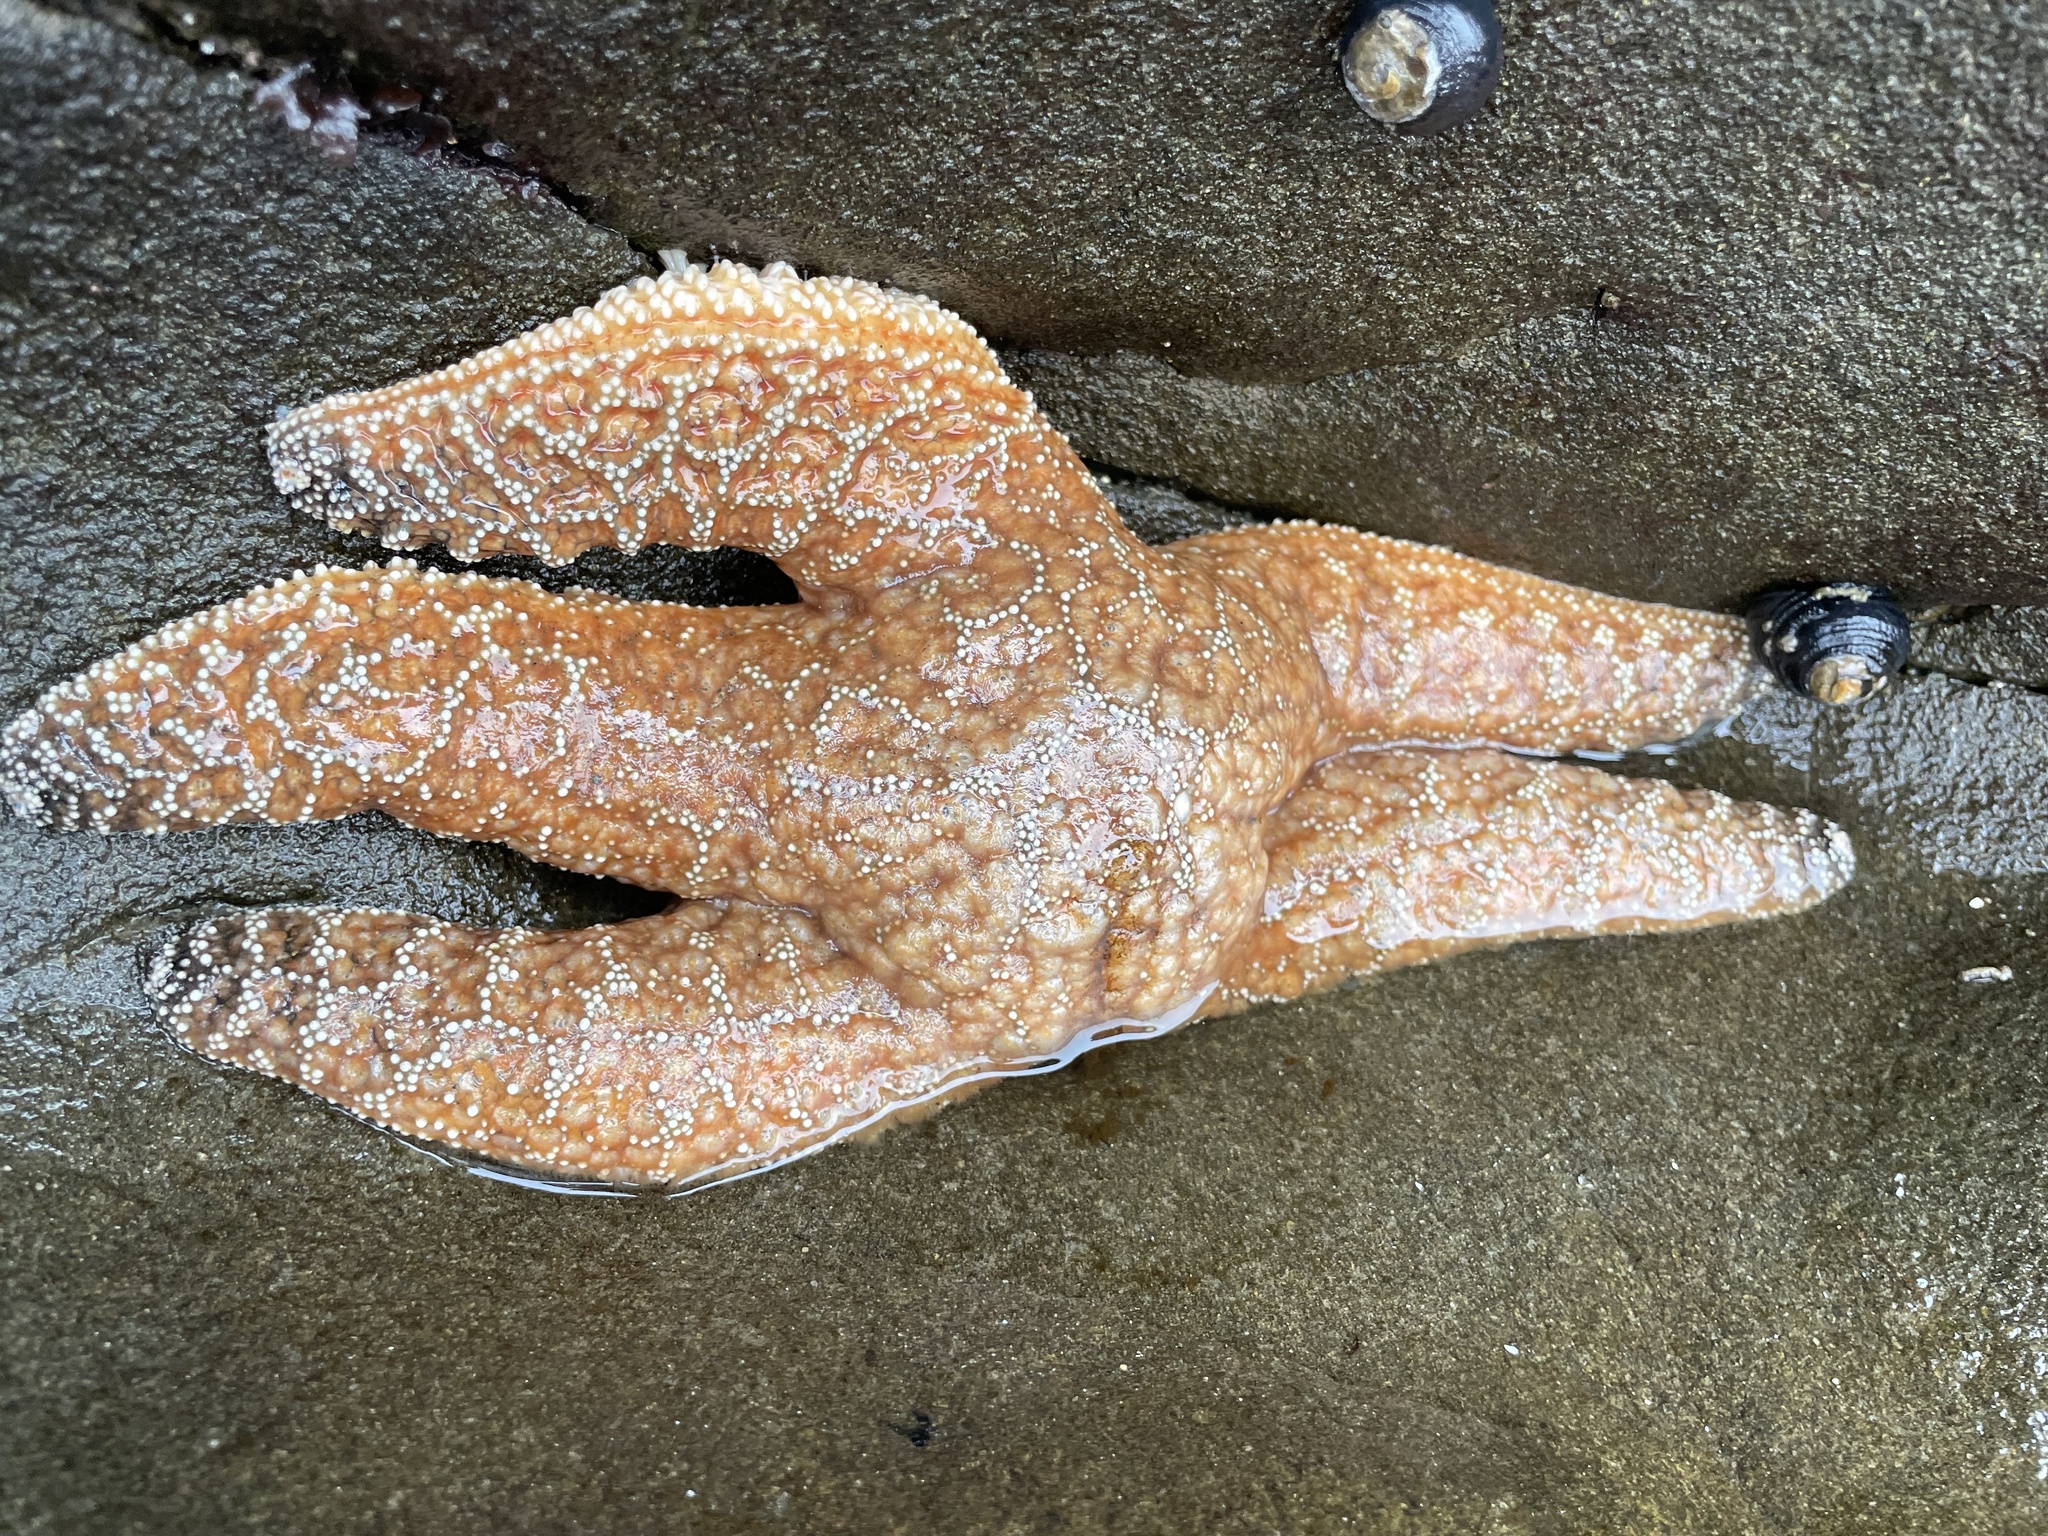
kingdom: Animalia
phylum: Echinodermata
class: Asteroidea
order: Forcipulatida
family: Asteriidae
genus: Pisaster
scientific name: Pisaster ochraceus
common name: Ochre stars
